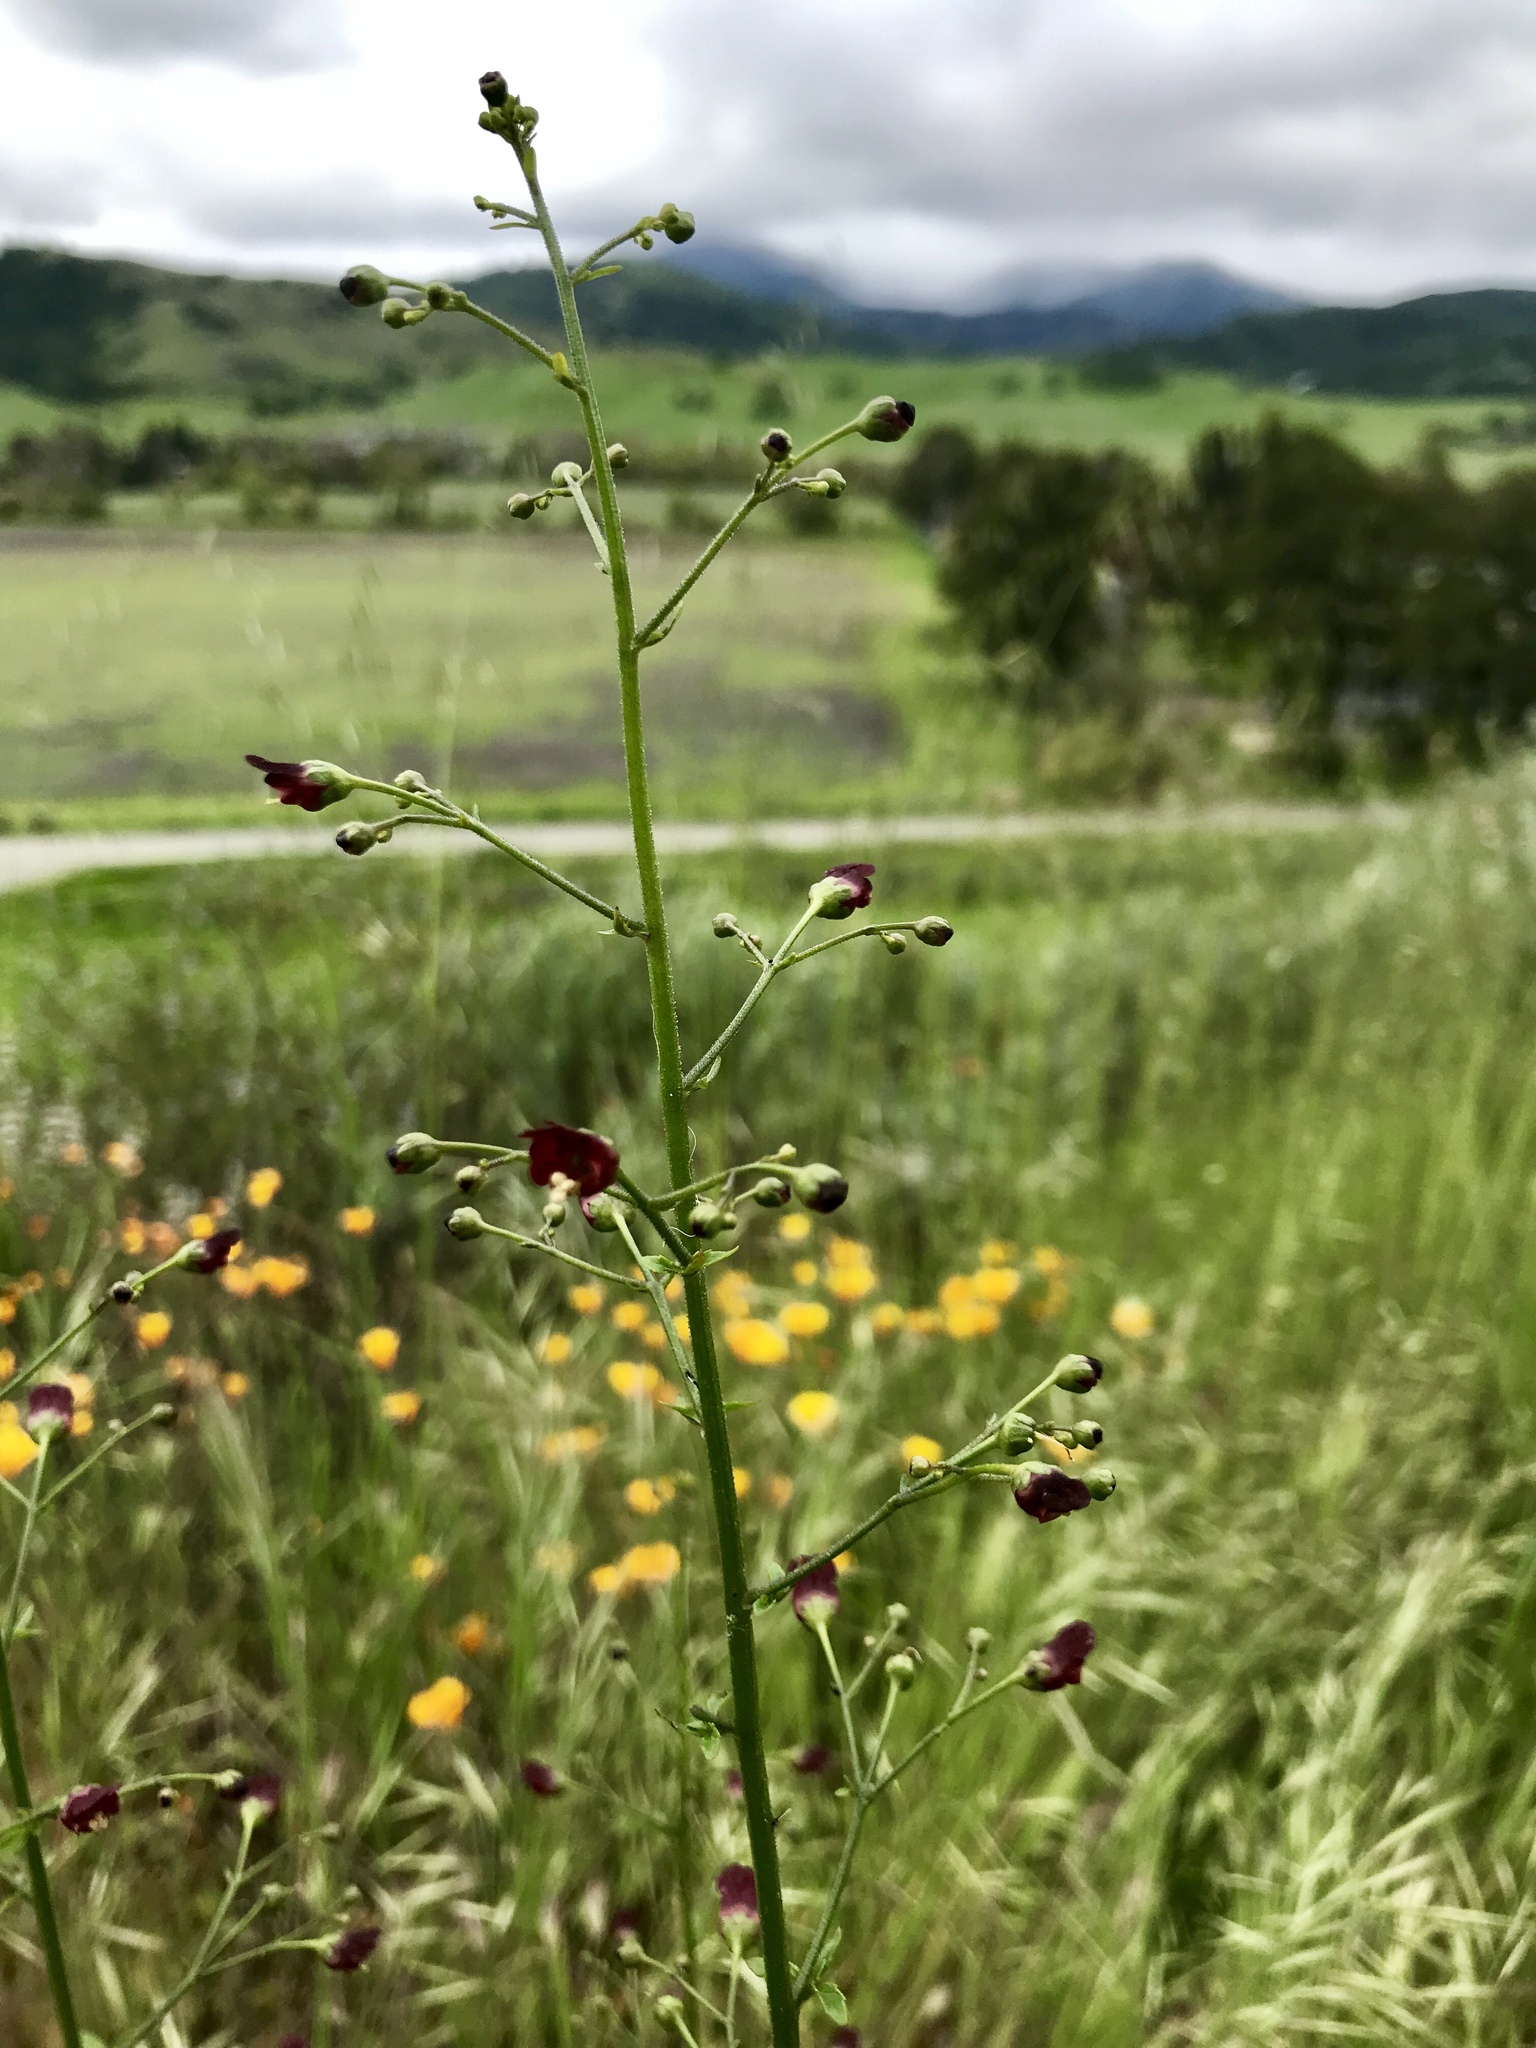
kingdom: Plantae
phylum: Tracheophyta
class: Magnoliopsida
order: Lamiales
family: Scrophulariaceae
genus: Scrophularia
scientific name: Scrophularia californica
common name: California figwort
